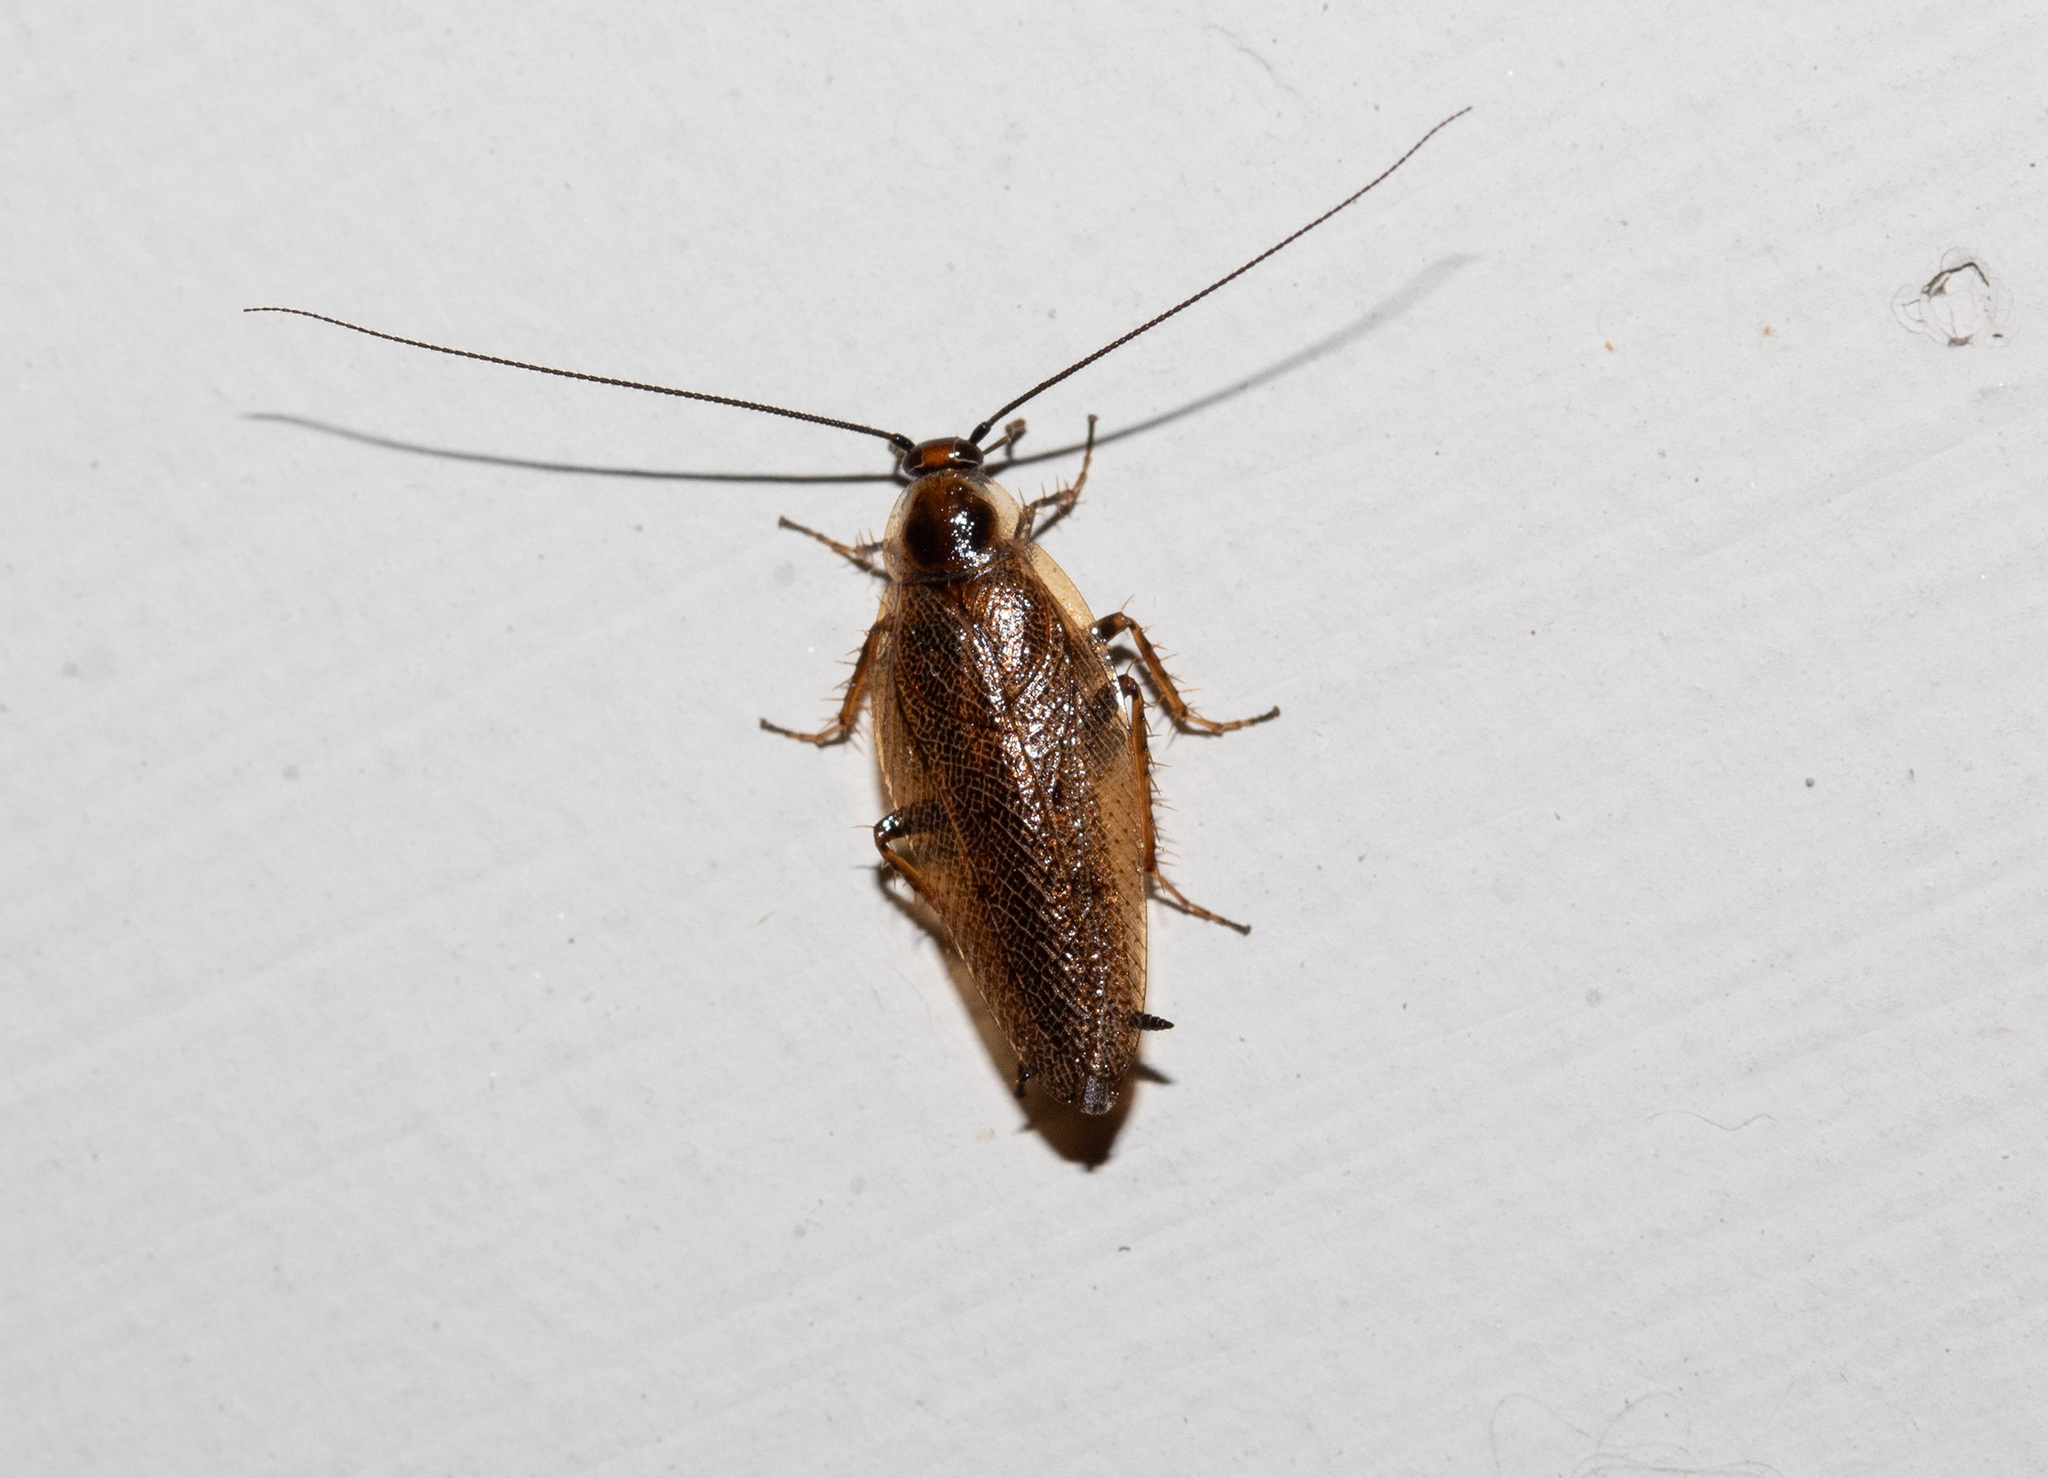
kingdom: Animalia
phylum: Arthropoda
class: Insecta
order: Blattodea
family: Ectobiidae
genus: Ectobius
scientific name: Ectobius lapponicus
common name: Dusky cockroach
